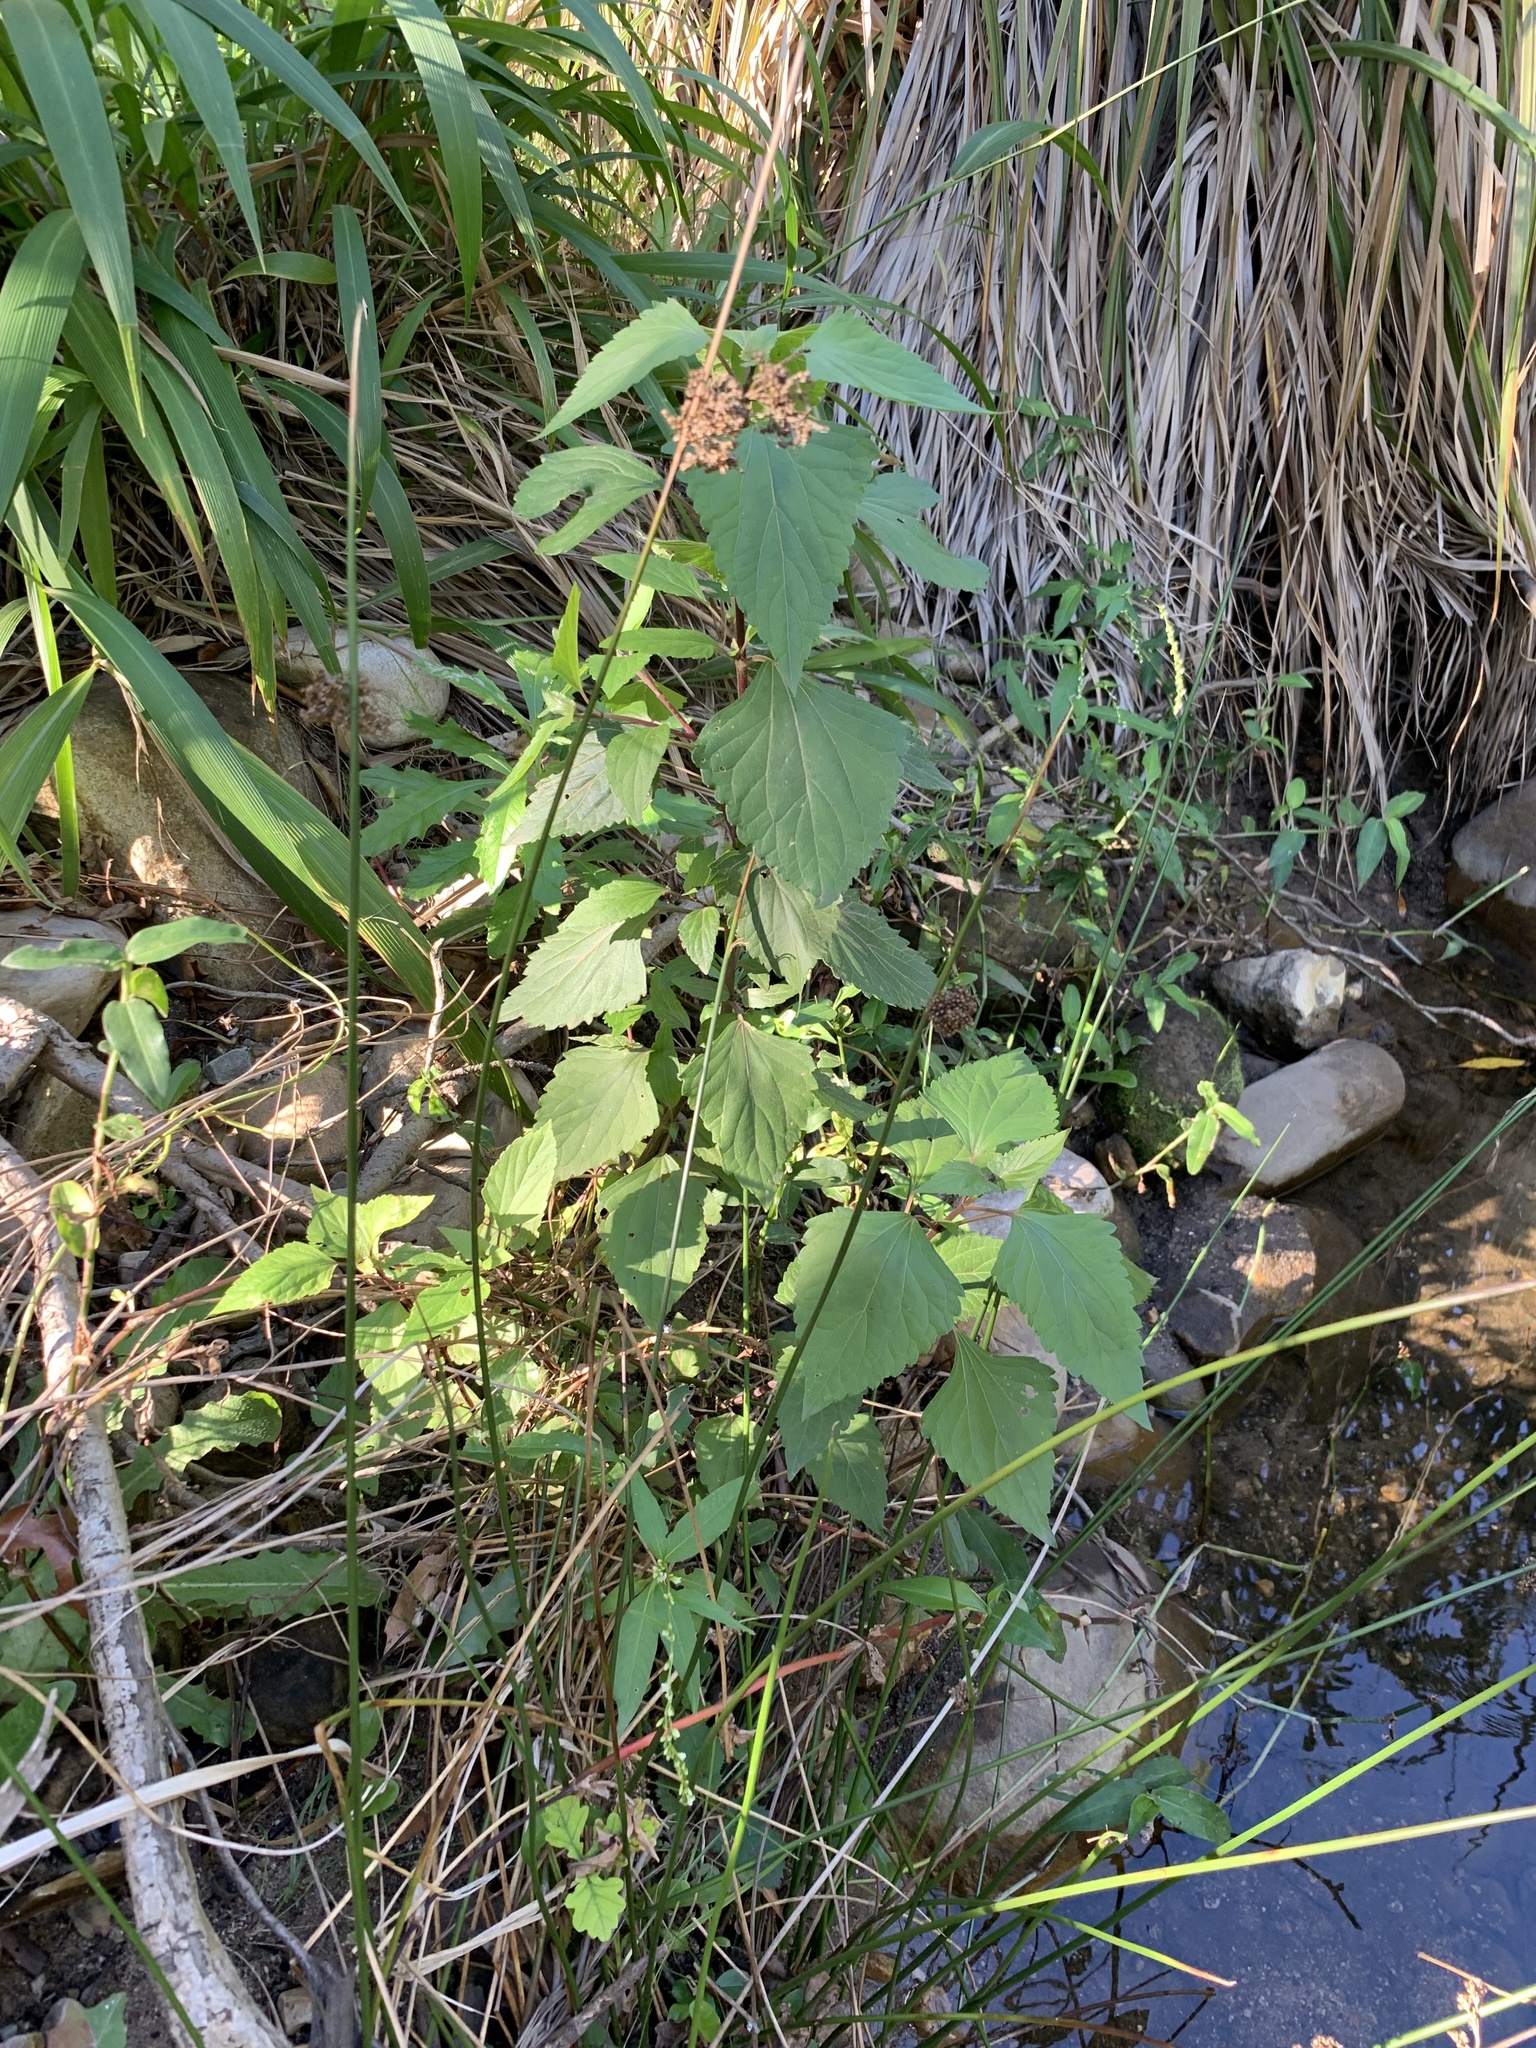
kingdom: Plantae
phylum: Tracheophyta
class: Magnoliopsida
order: Asterales
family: Asteraceae
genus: Ageratina
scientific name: Ageratina adenophora
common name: Sticky snakeroot
